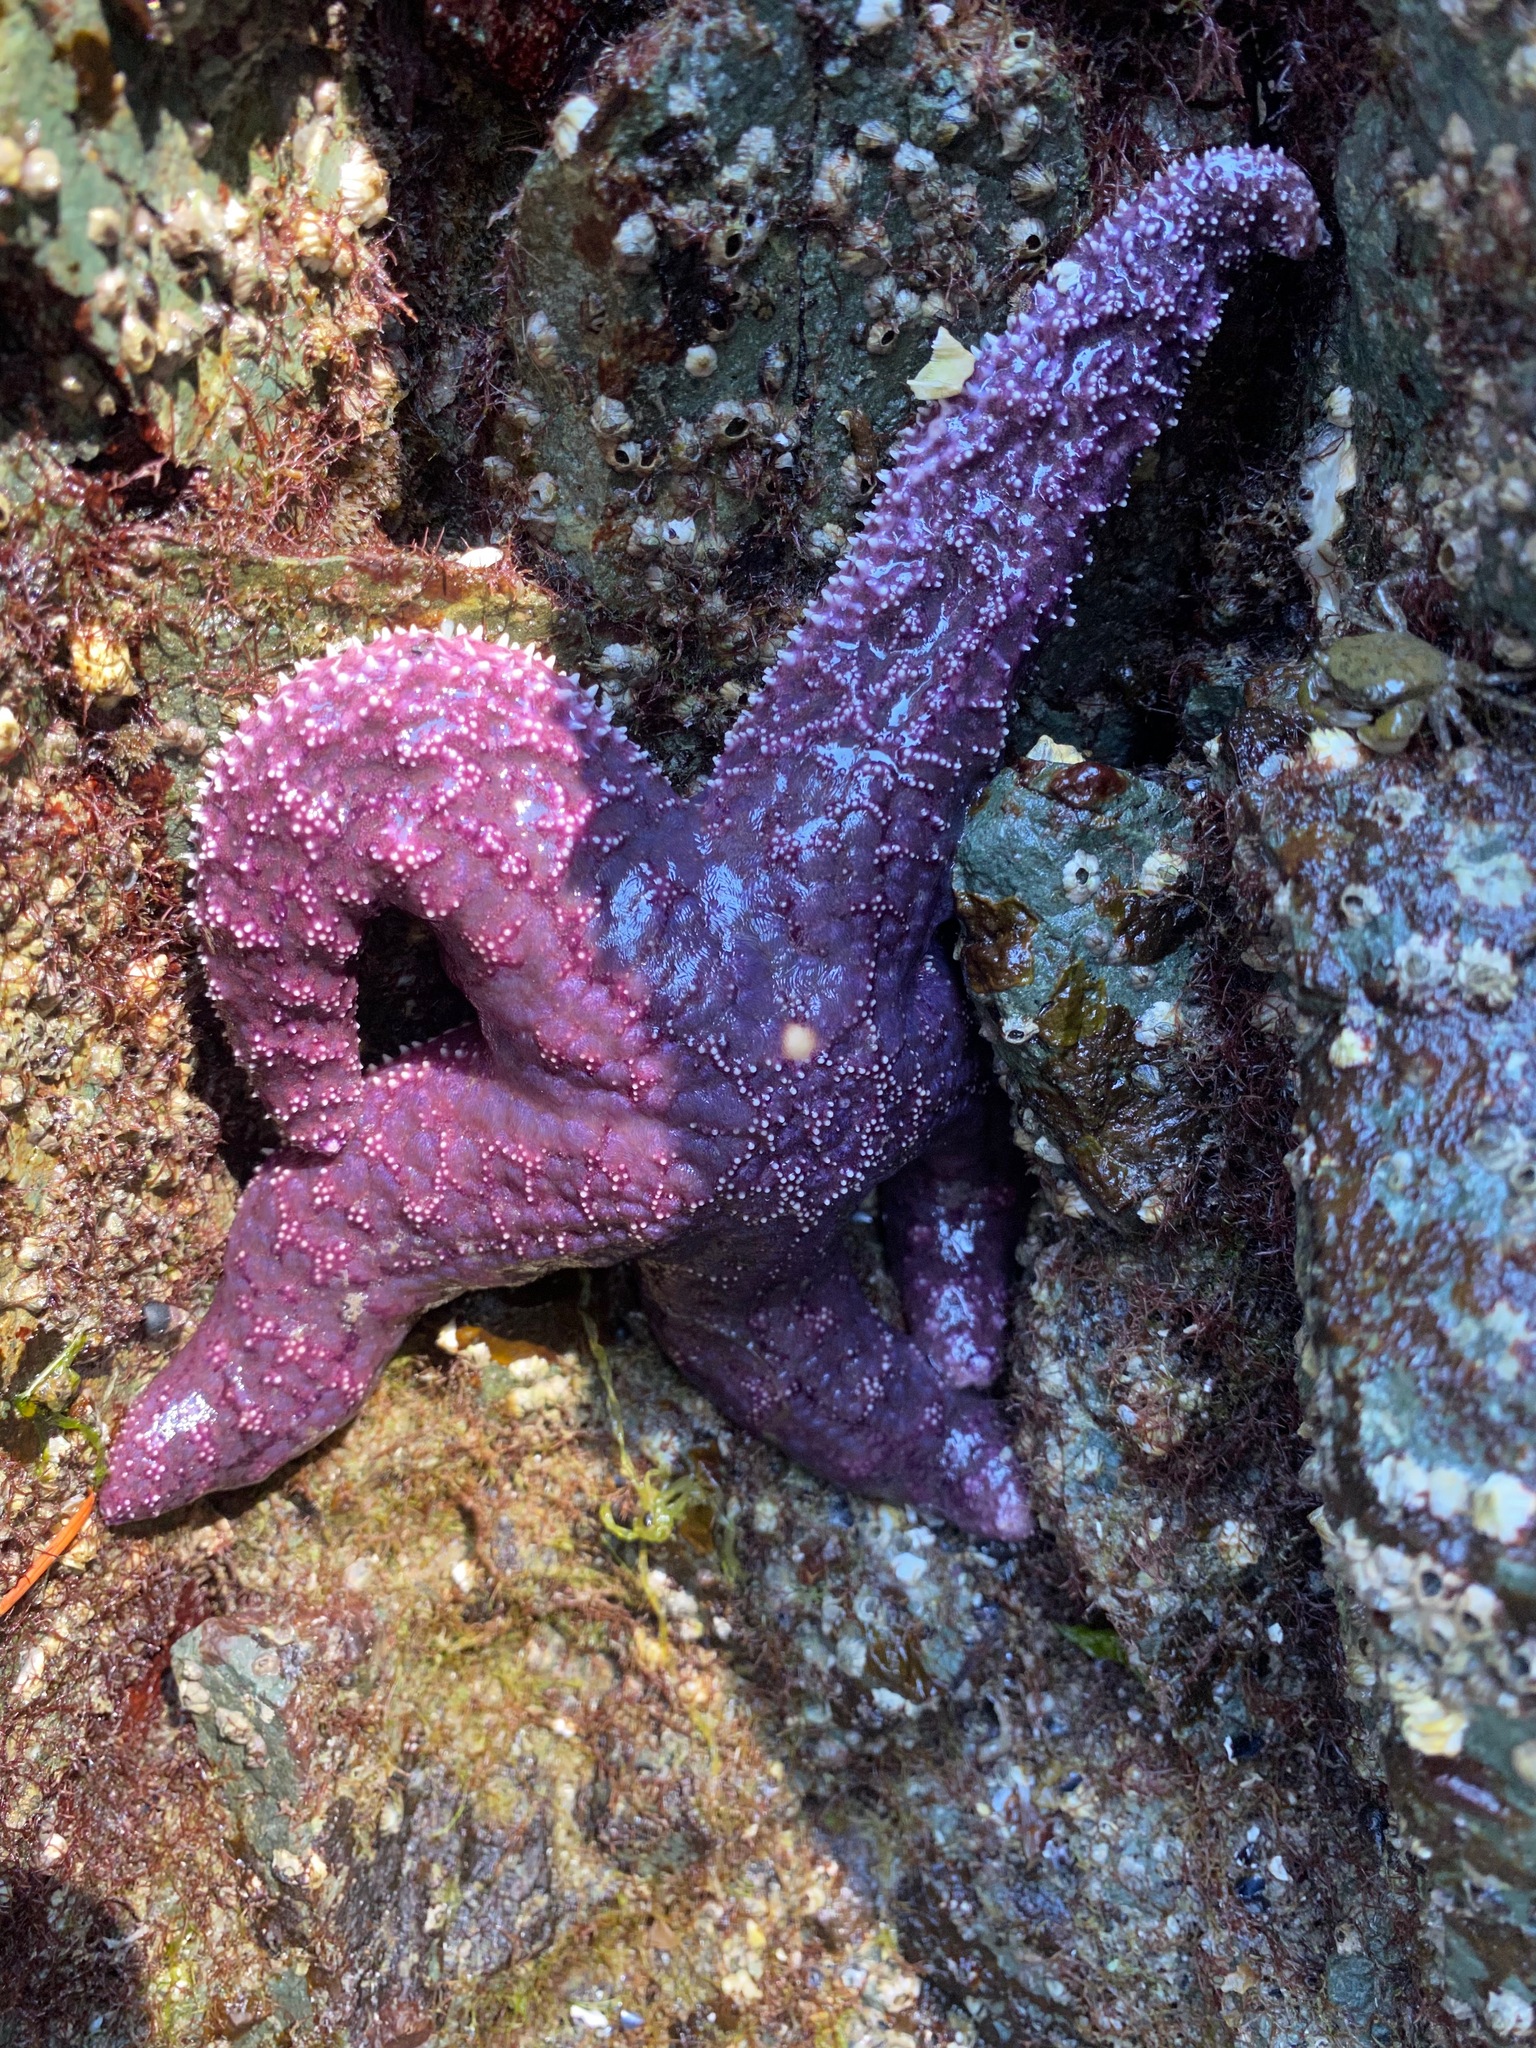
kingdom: Animalia
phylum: Echinodermata
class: Asteroidea
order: Forcipulatida
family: Asteriidae
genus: Pisaster
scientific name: Pisaster ochraceus
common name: Ochre stars
